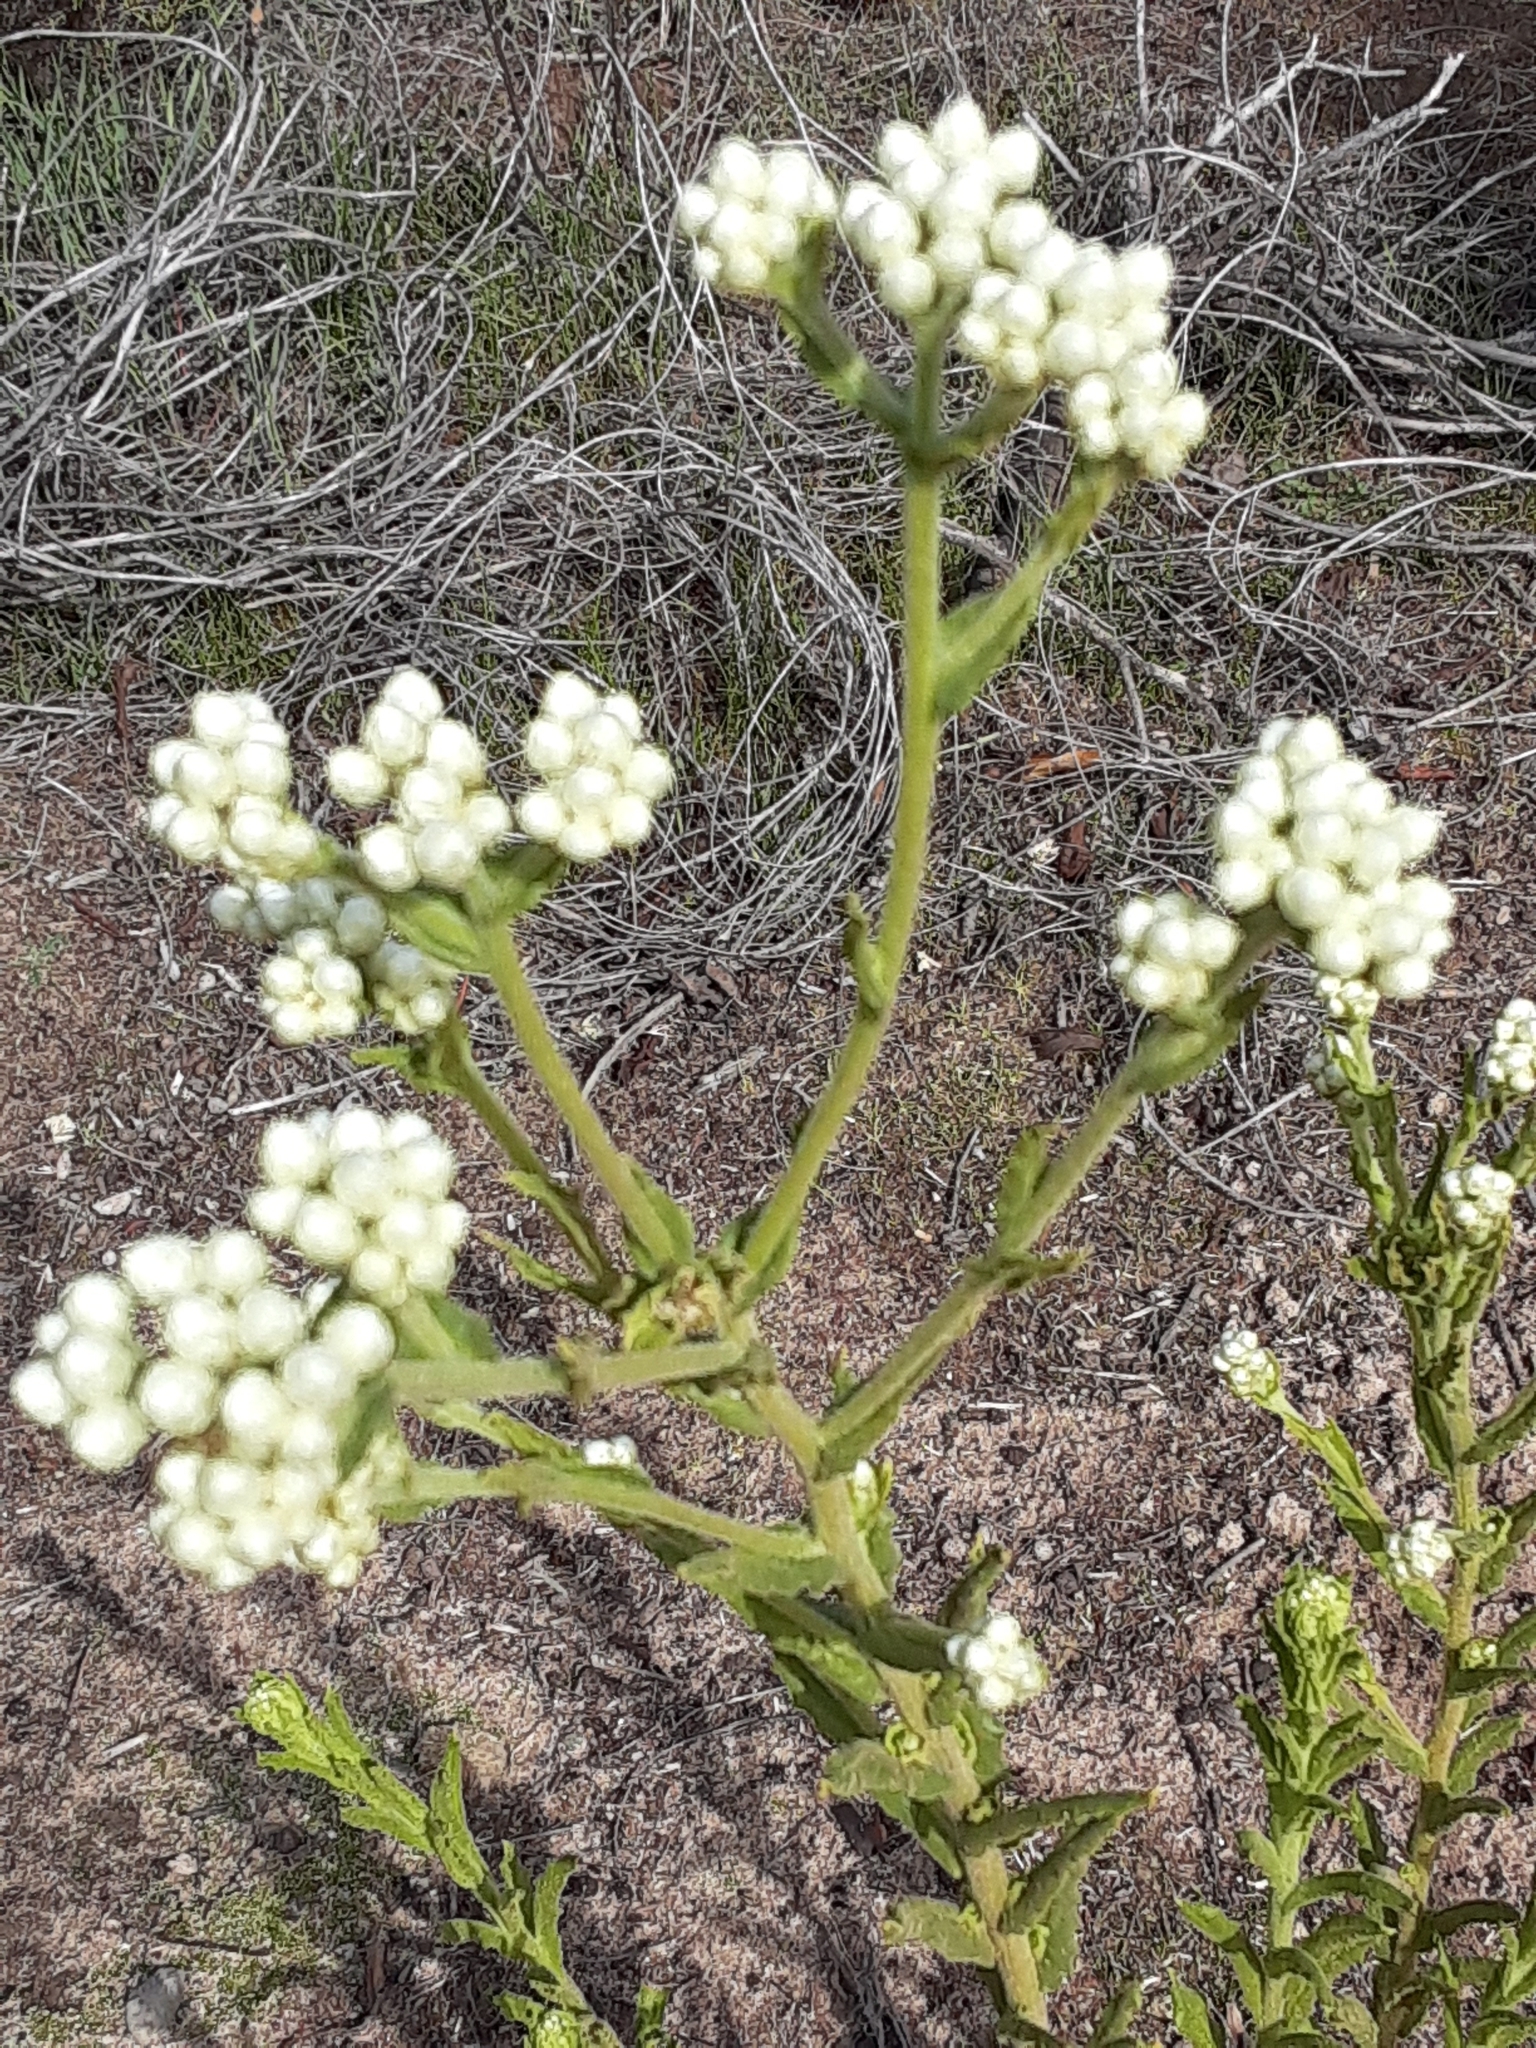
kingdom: Plantae
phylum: Tracheophyta
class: Magnoliopsida
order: Asterales
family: Asteraceae
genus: Pseudognaphalium
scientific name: Pseudognaphalium californicum
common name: California rabbit-tobacco
